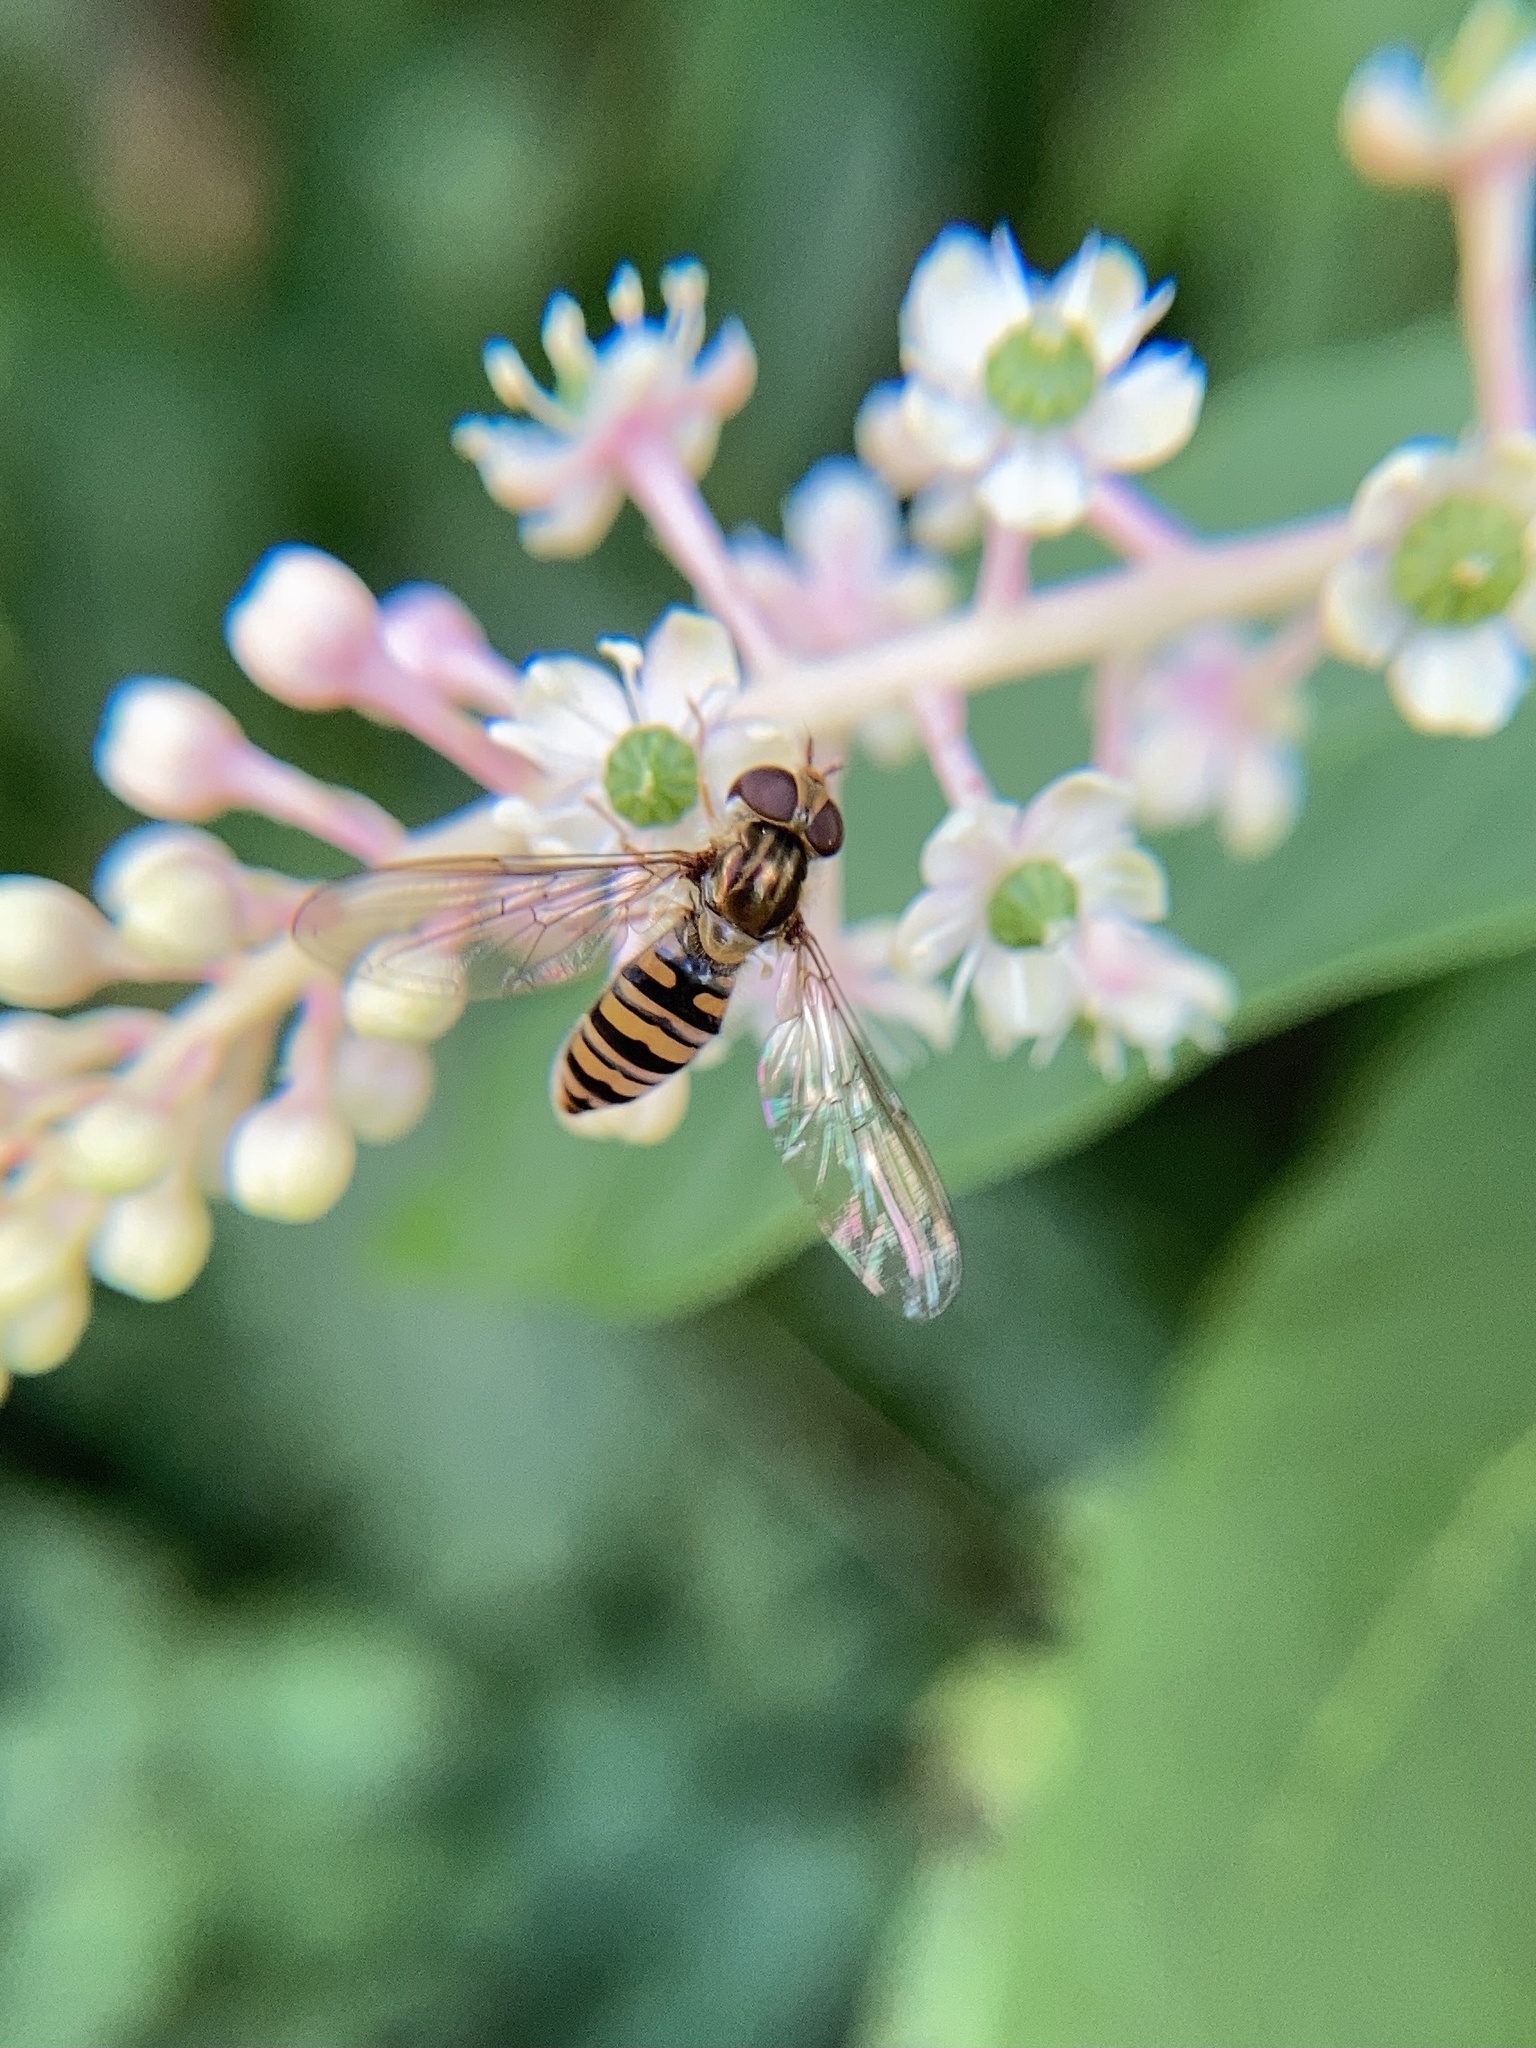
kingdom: Animalia
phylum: Arthropoda
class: Insecta
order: Diptera
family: Syrphidae
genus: Episyrphus
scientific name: Episyrphus balteatus
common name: Marmalade hoverfly
